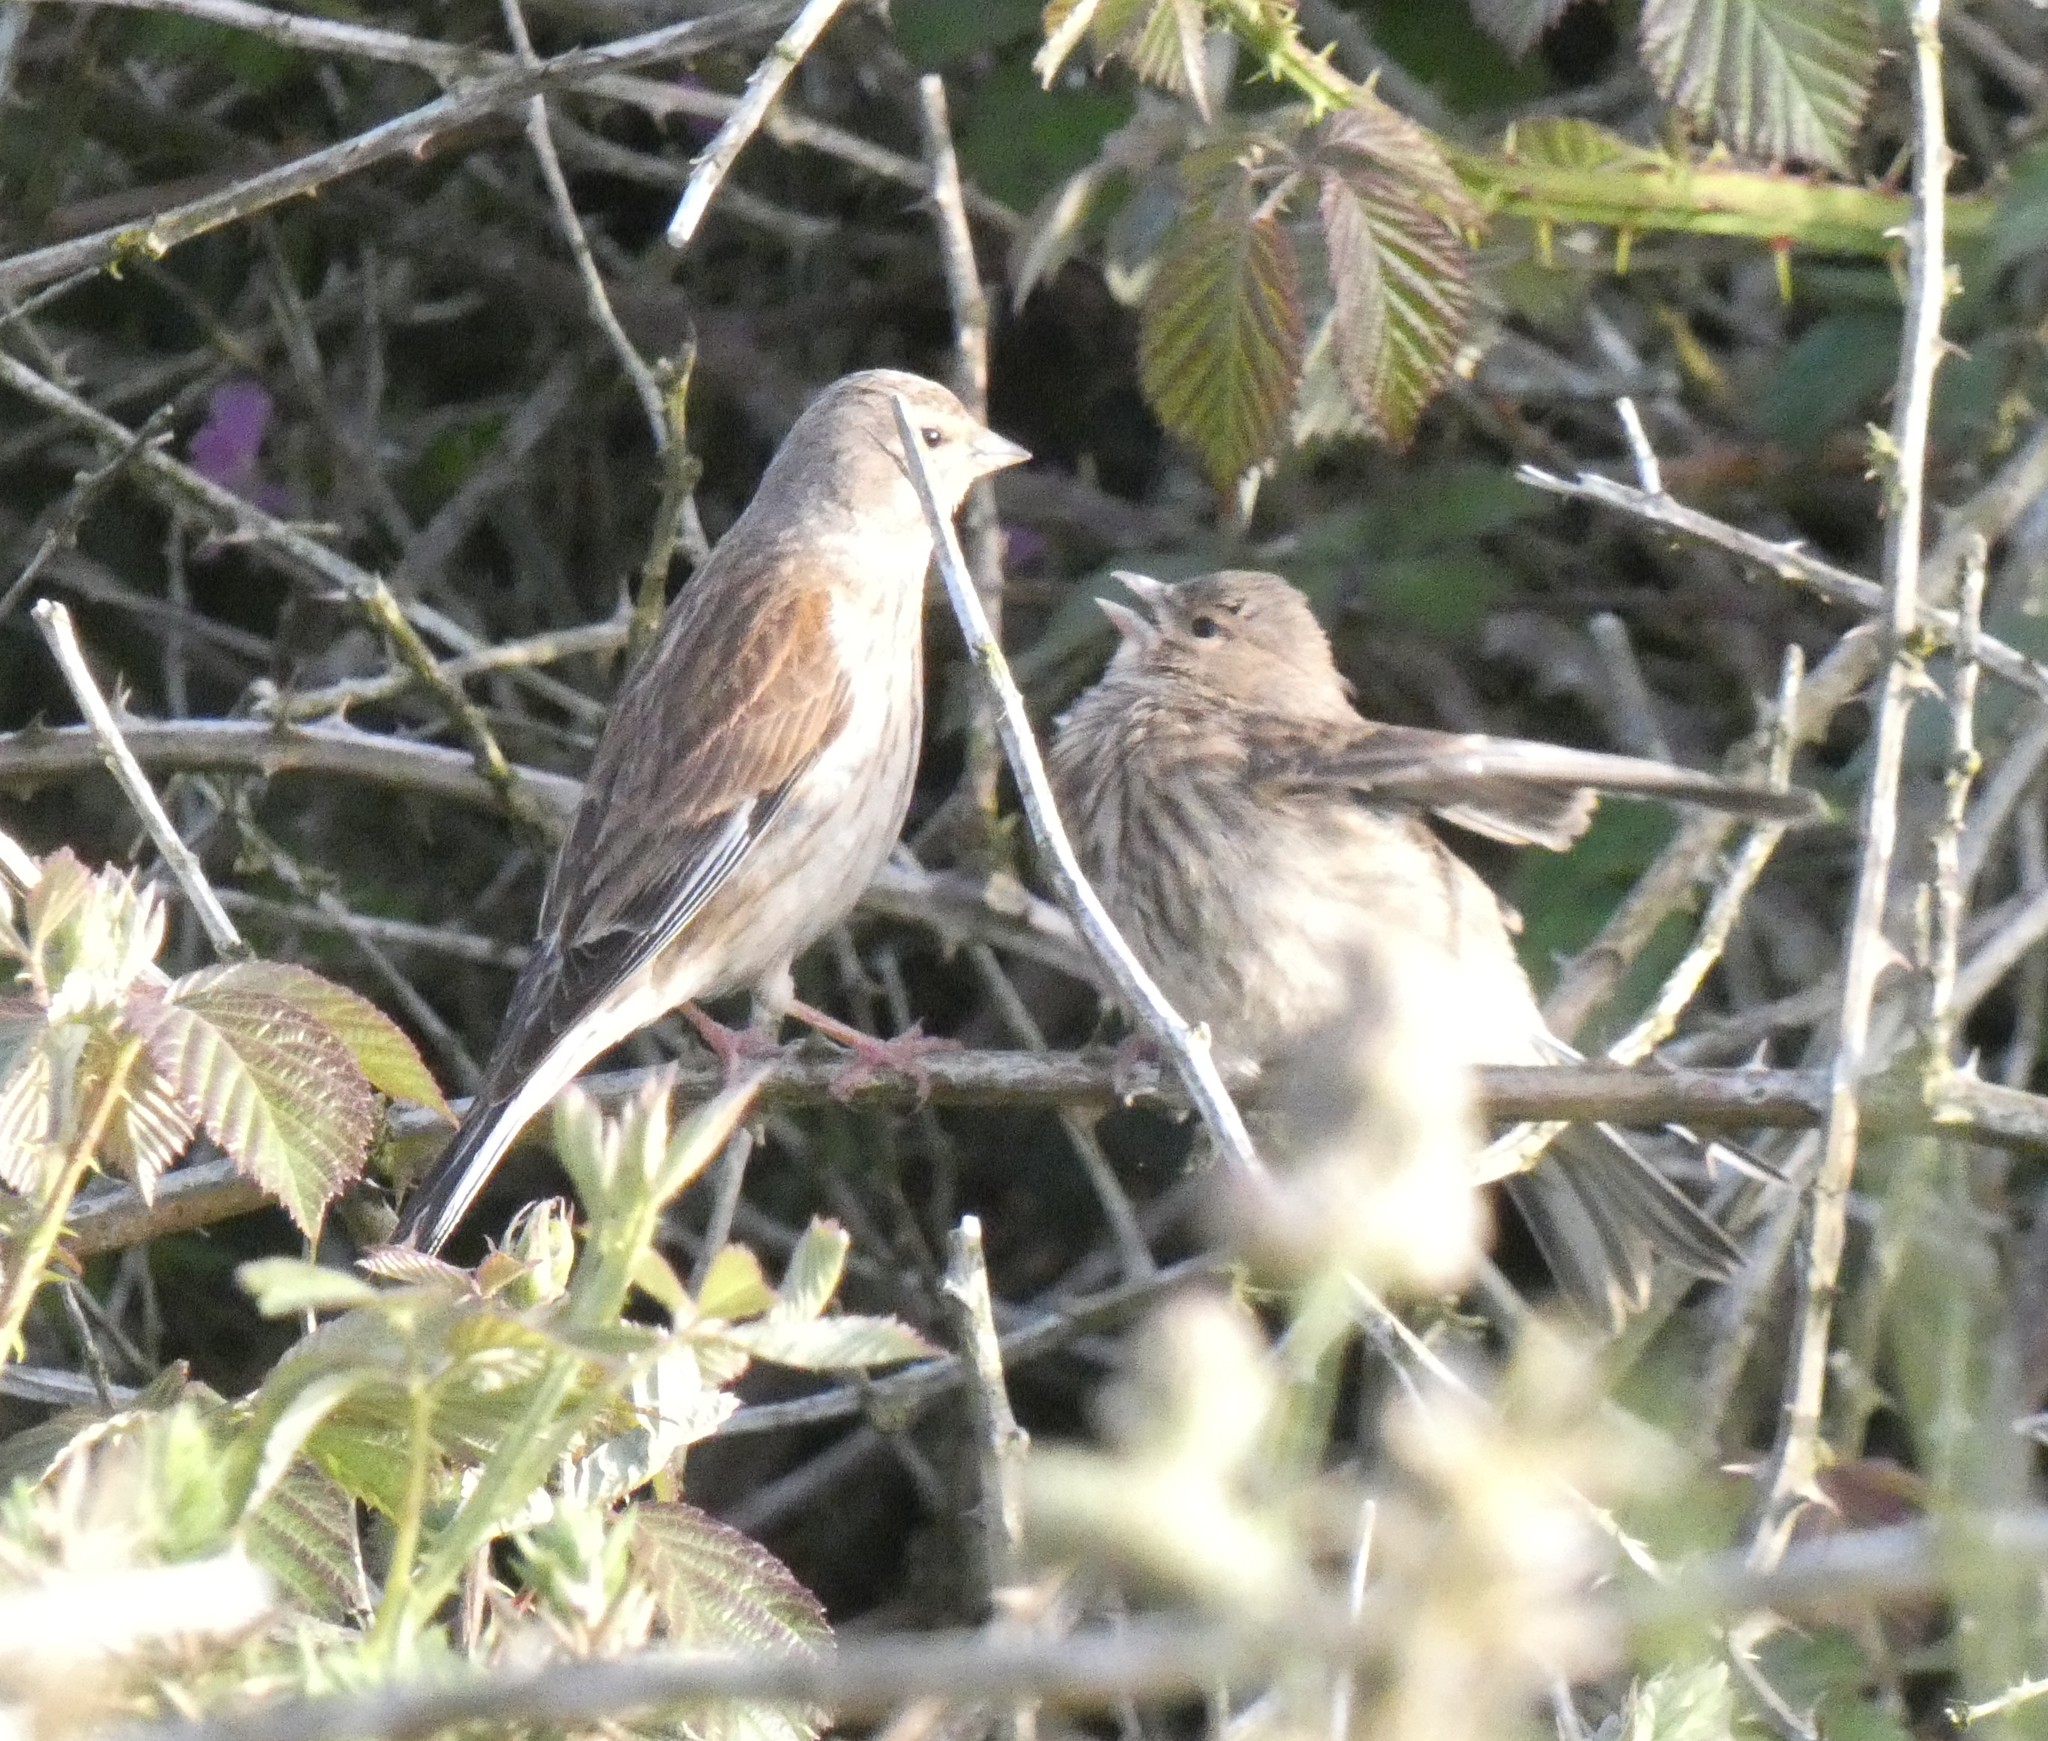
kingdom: Animalia
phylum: Chordata
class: Aves
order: Passeriformes
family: Fringillidae
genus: Linaria
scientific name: Linaria cannabina
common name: Common linnet
